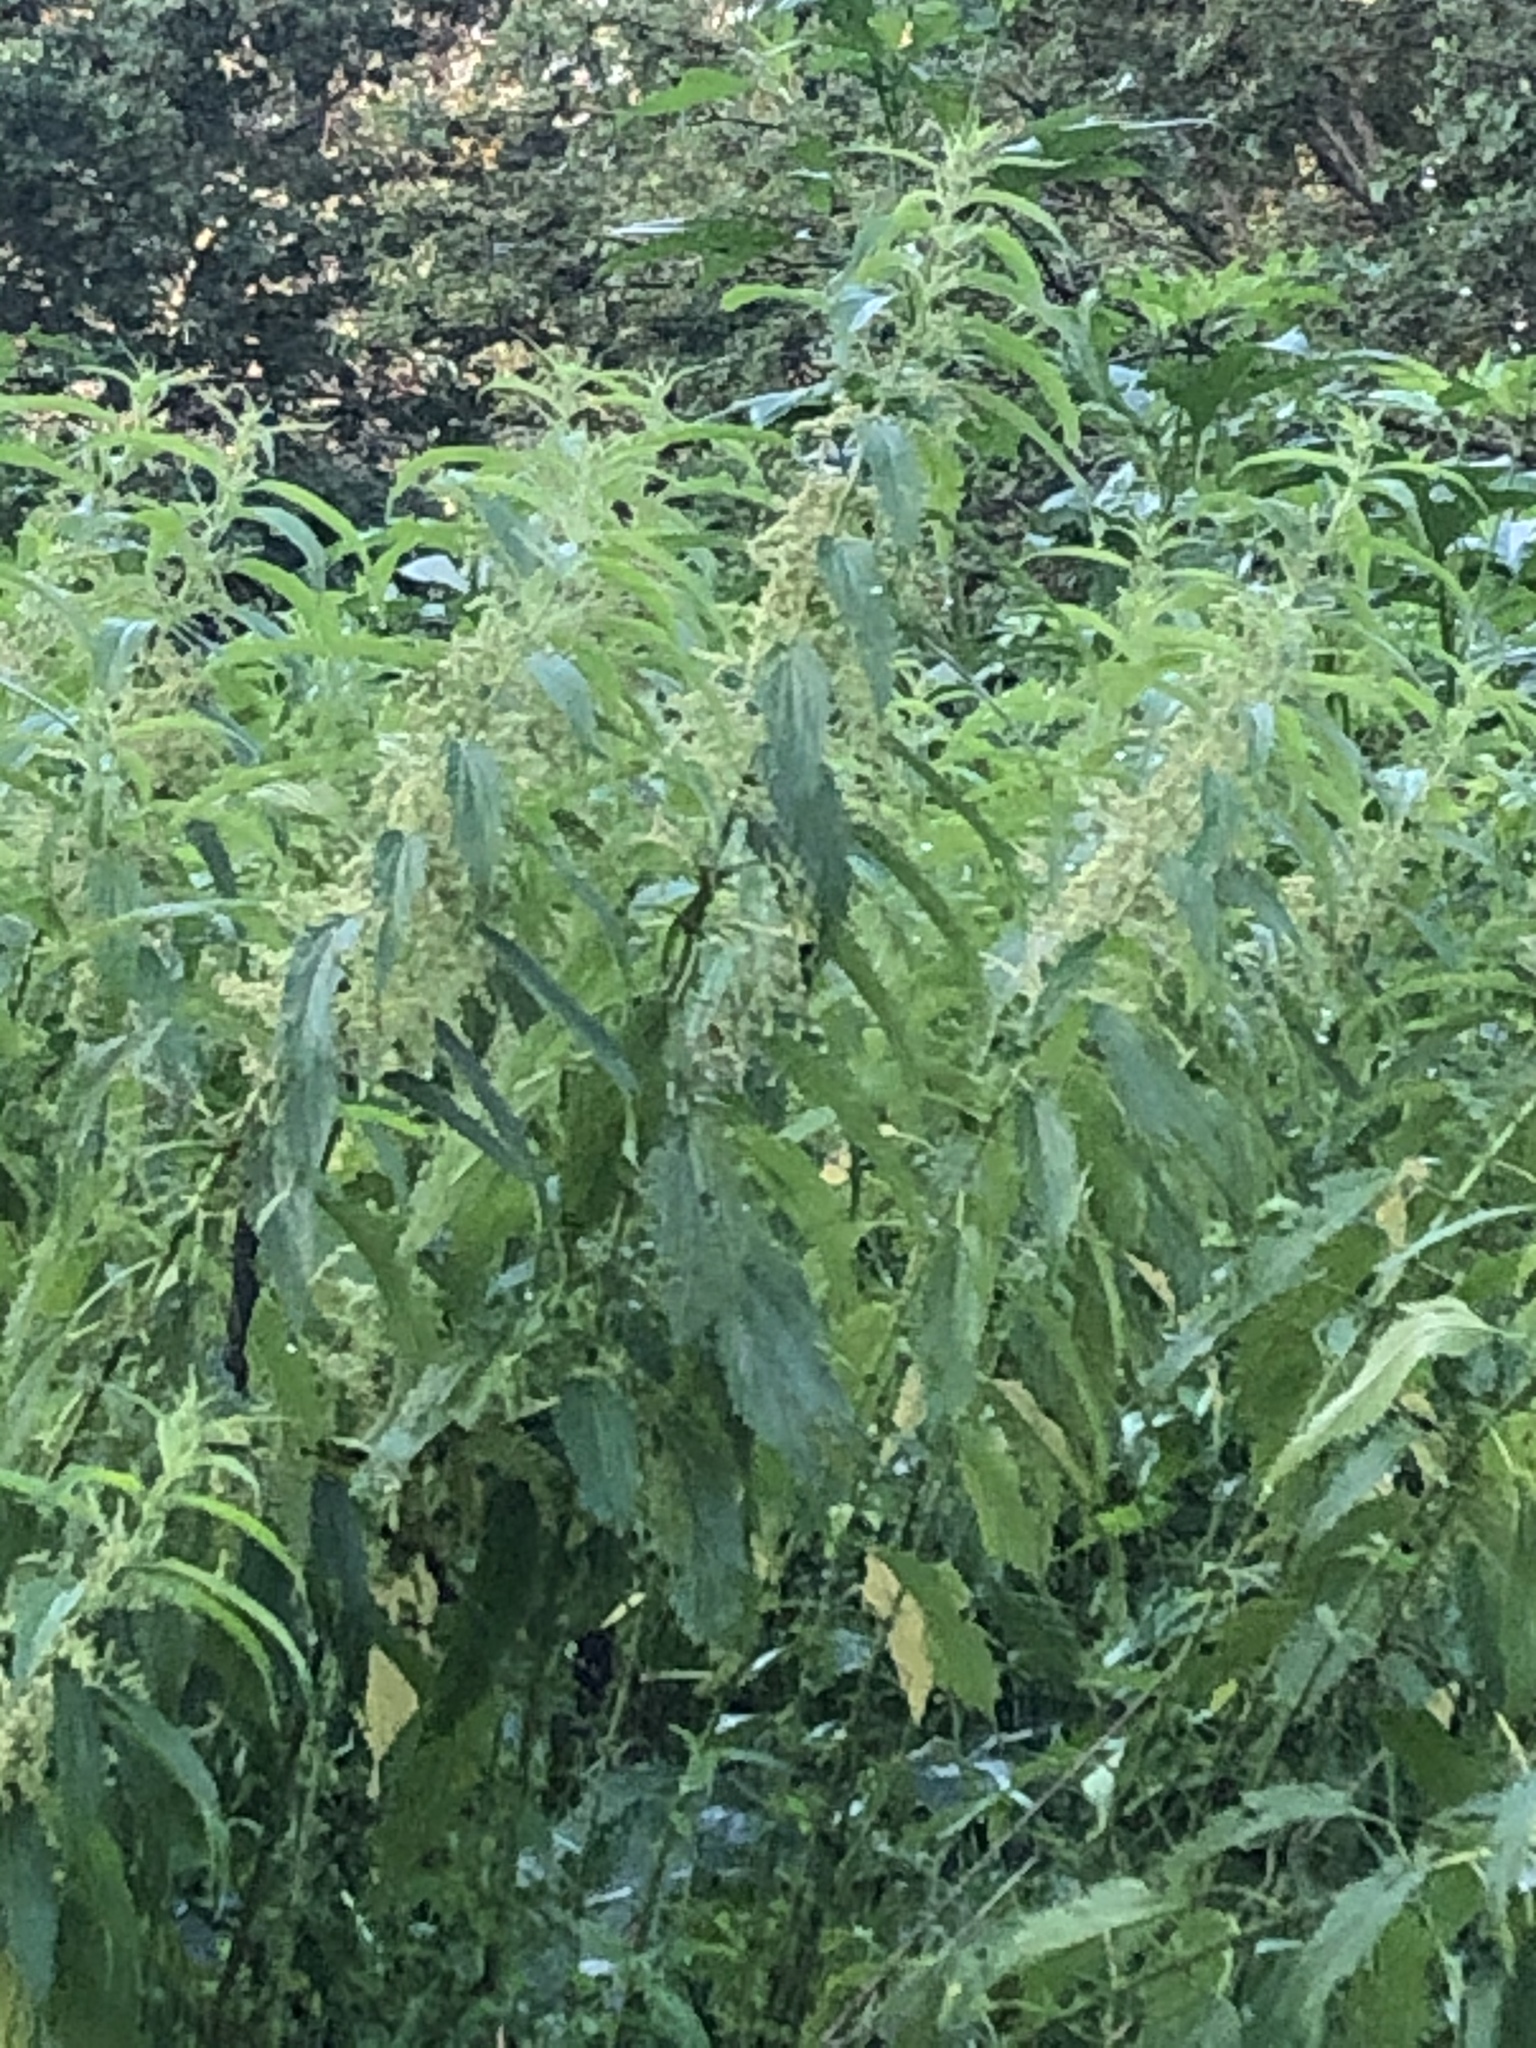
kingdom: Plantae
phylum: Tracheophyta
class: Magnoliopsida
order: Rosales
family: Urticaceae
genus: Urtica
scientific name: Urtica gracilis
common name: Slender stinging nettle
